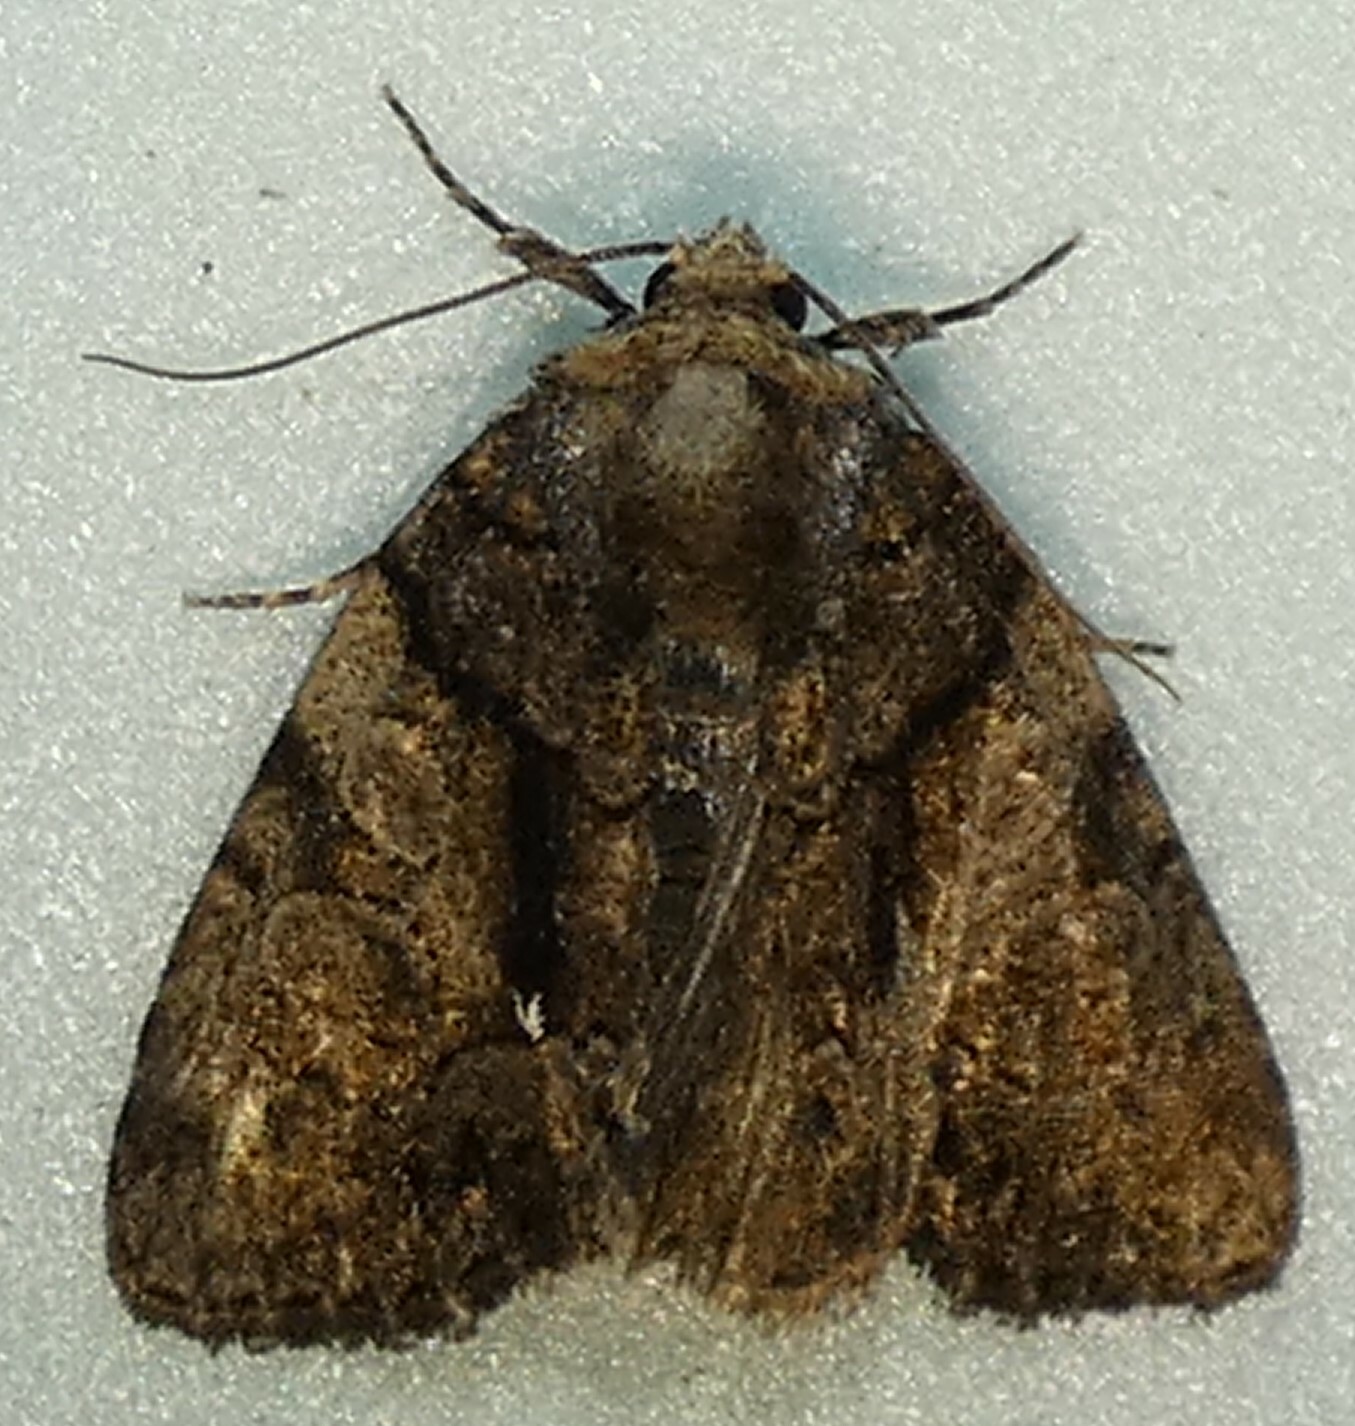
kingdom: Animalia
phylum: Arthropoda
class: Insecta
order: Lepidoptera
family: Noctuidae
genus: Chytonix
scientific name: Chytonix palliatricula
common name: Cloaked marvel
